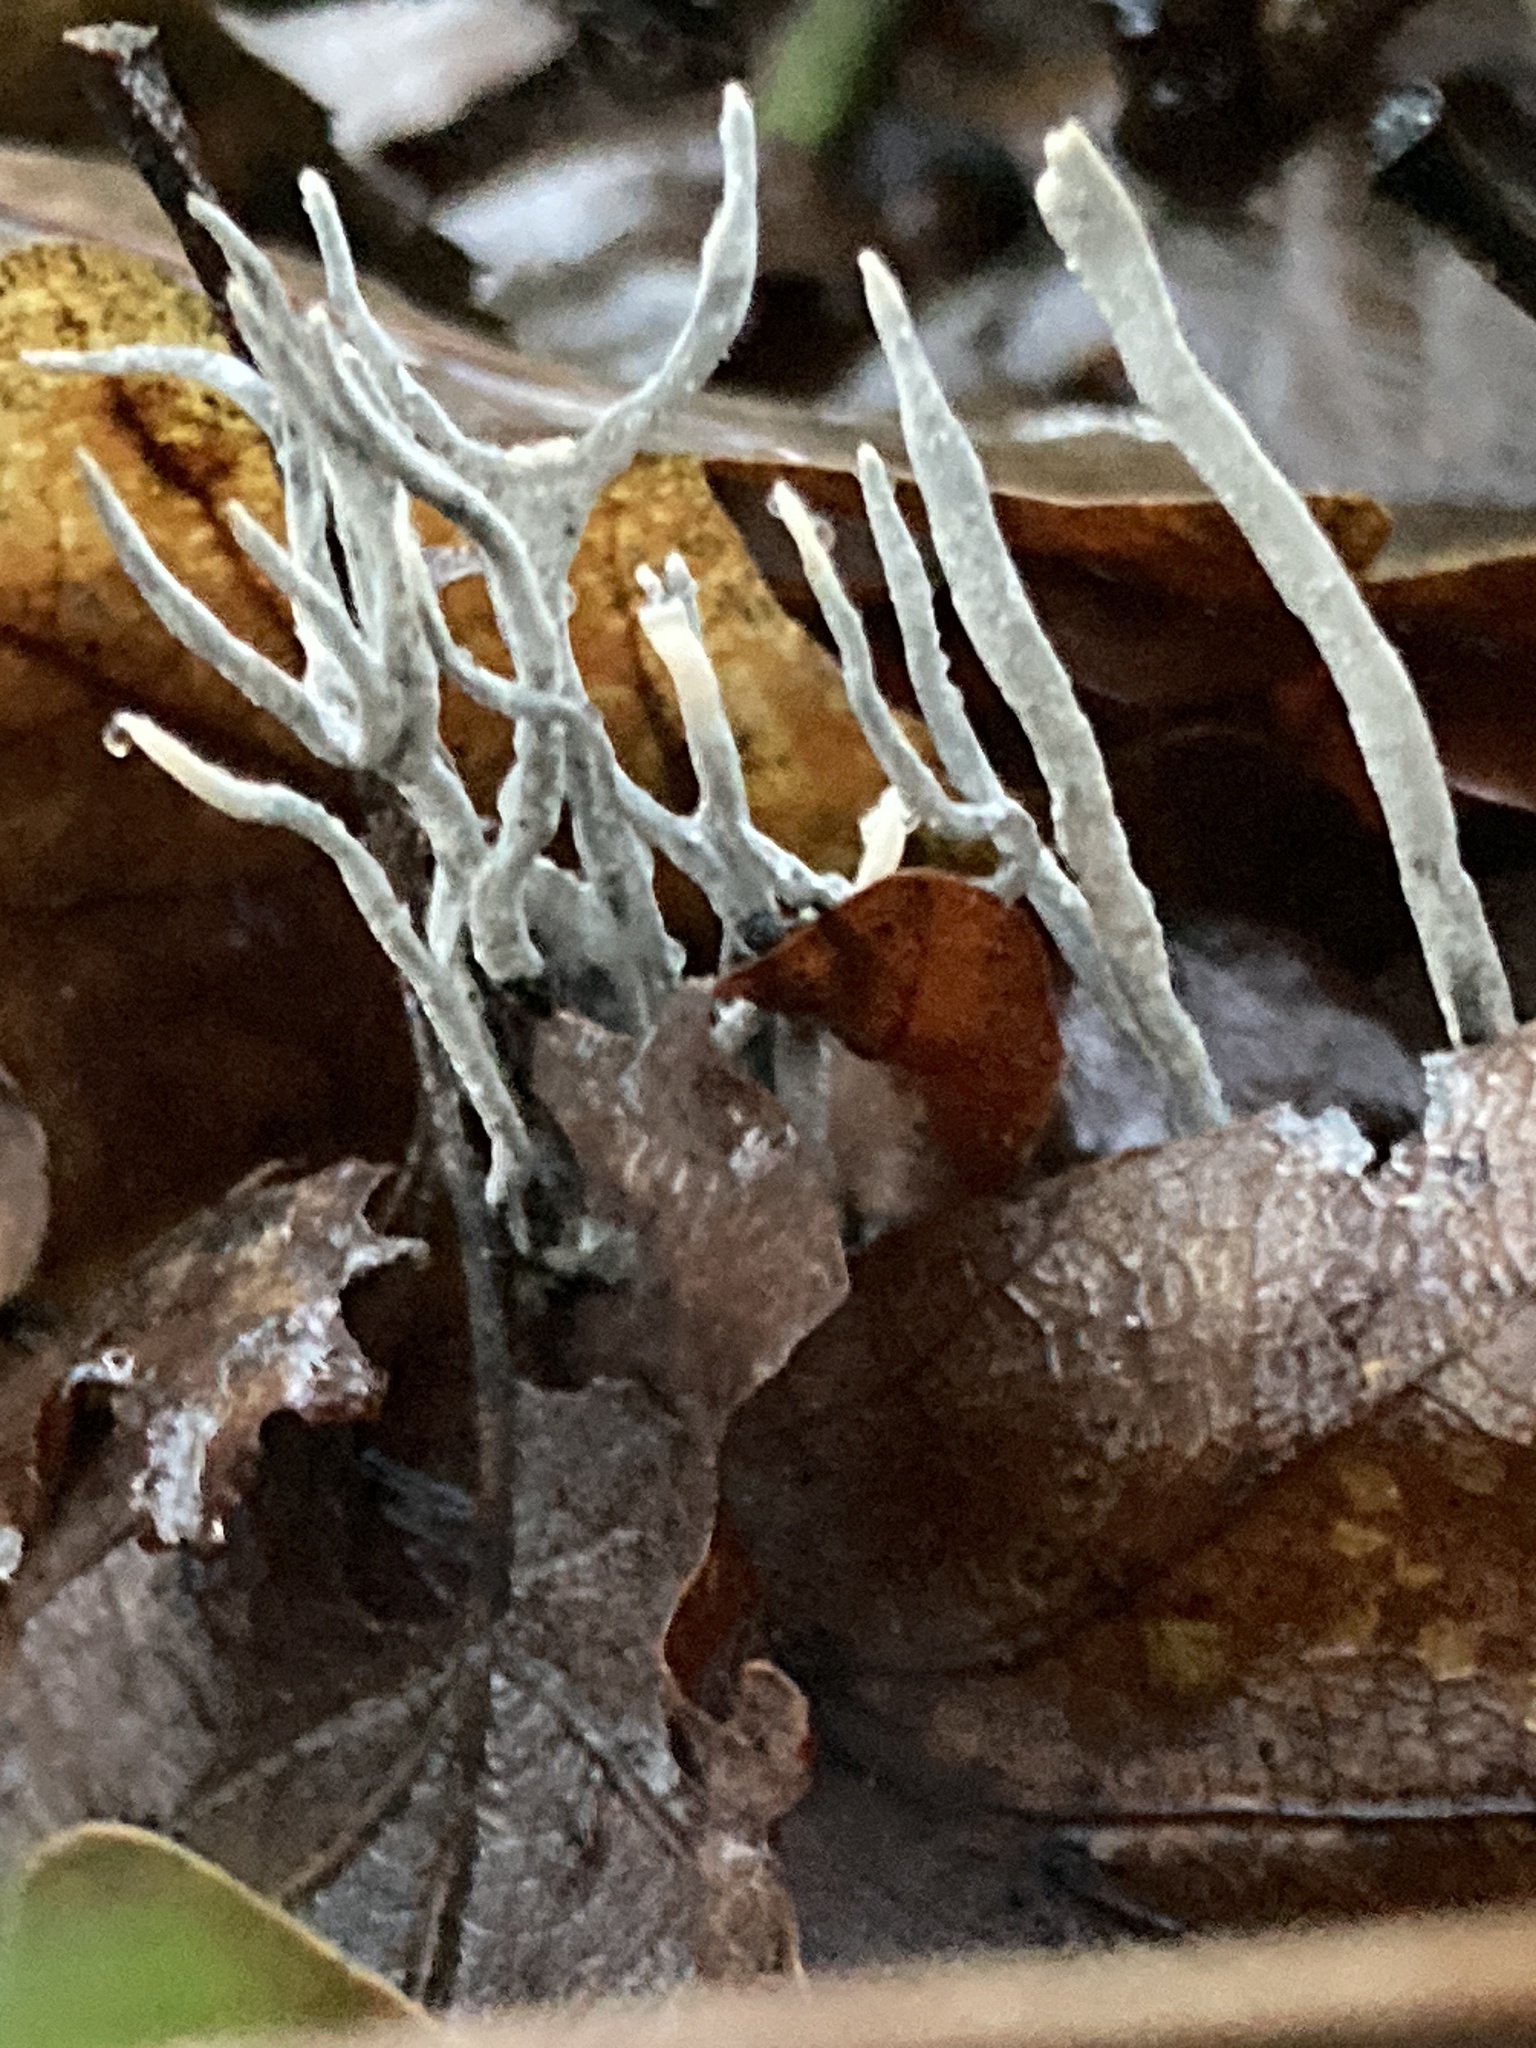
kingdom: Fungi
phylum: Ascomycota
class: Sordariomycetes
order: Xylariales
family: Xylariaceae
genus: Xylaria
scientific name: Xylaria hypoxylon
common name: Candle-snuff fungus
